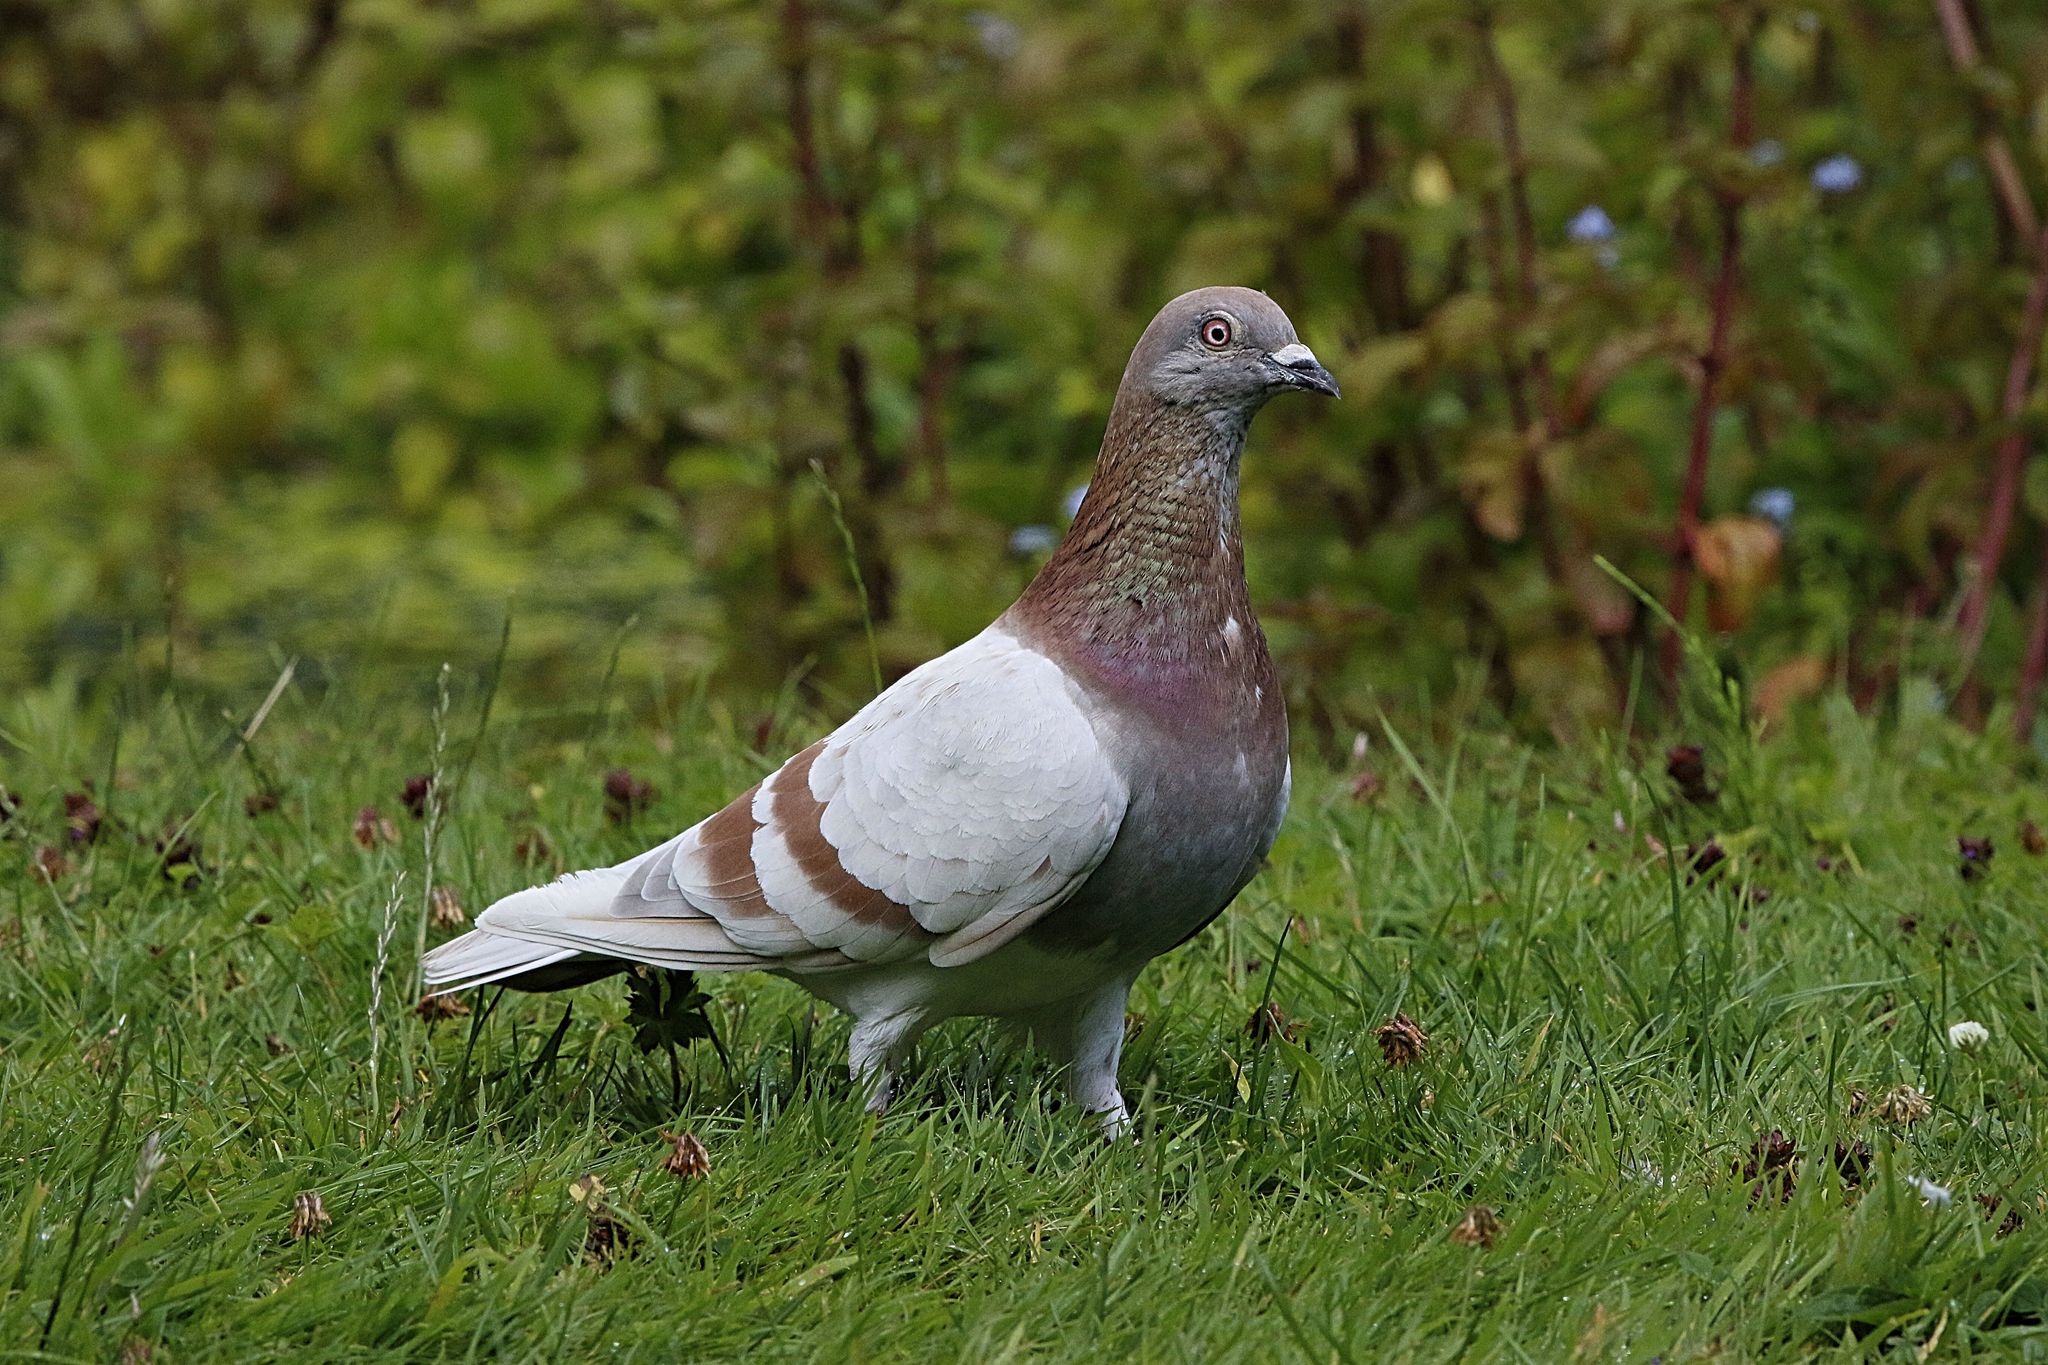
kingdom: Animalia
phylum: Chordata
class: Aves
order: Columbiformes
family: Columbidae
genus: Columba
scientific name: Columba livia
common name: Rock pigeon
